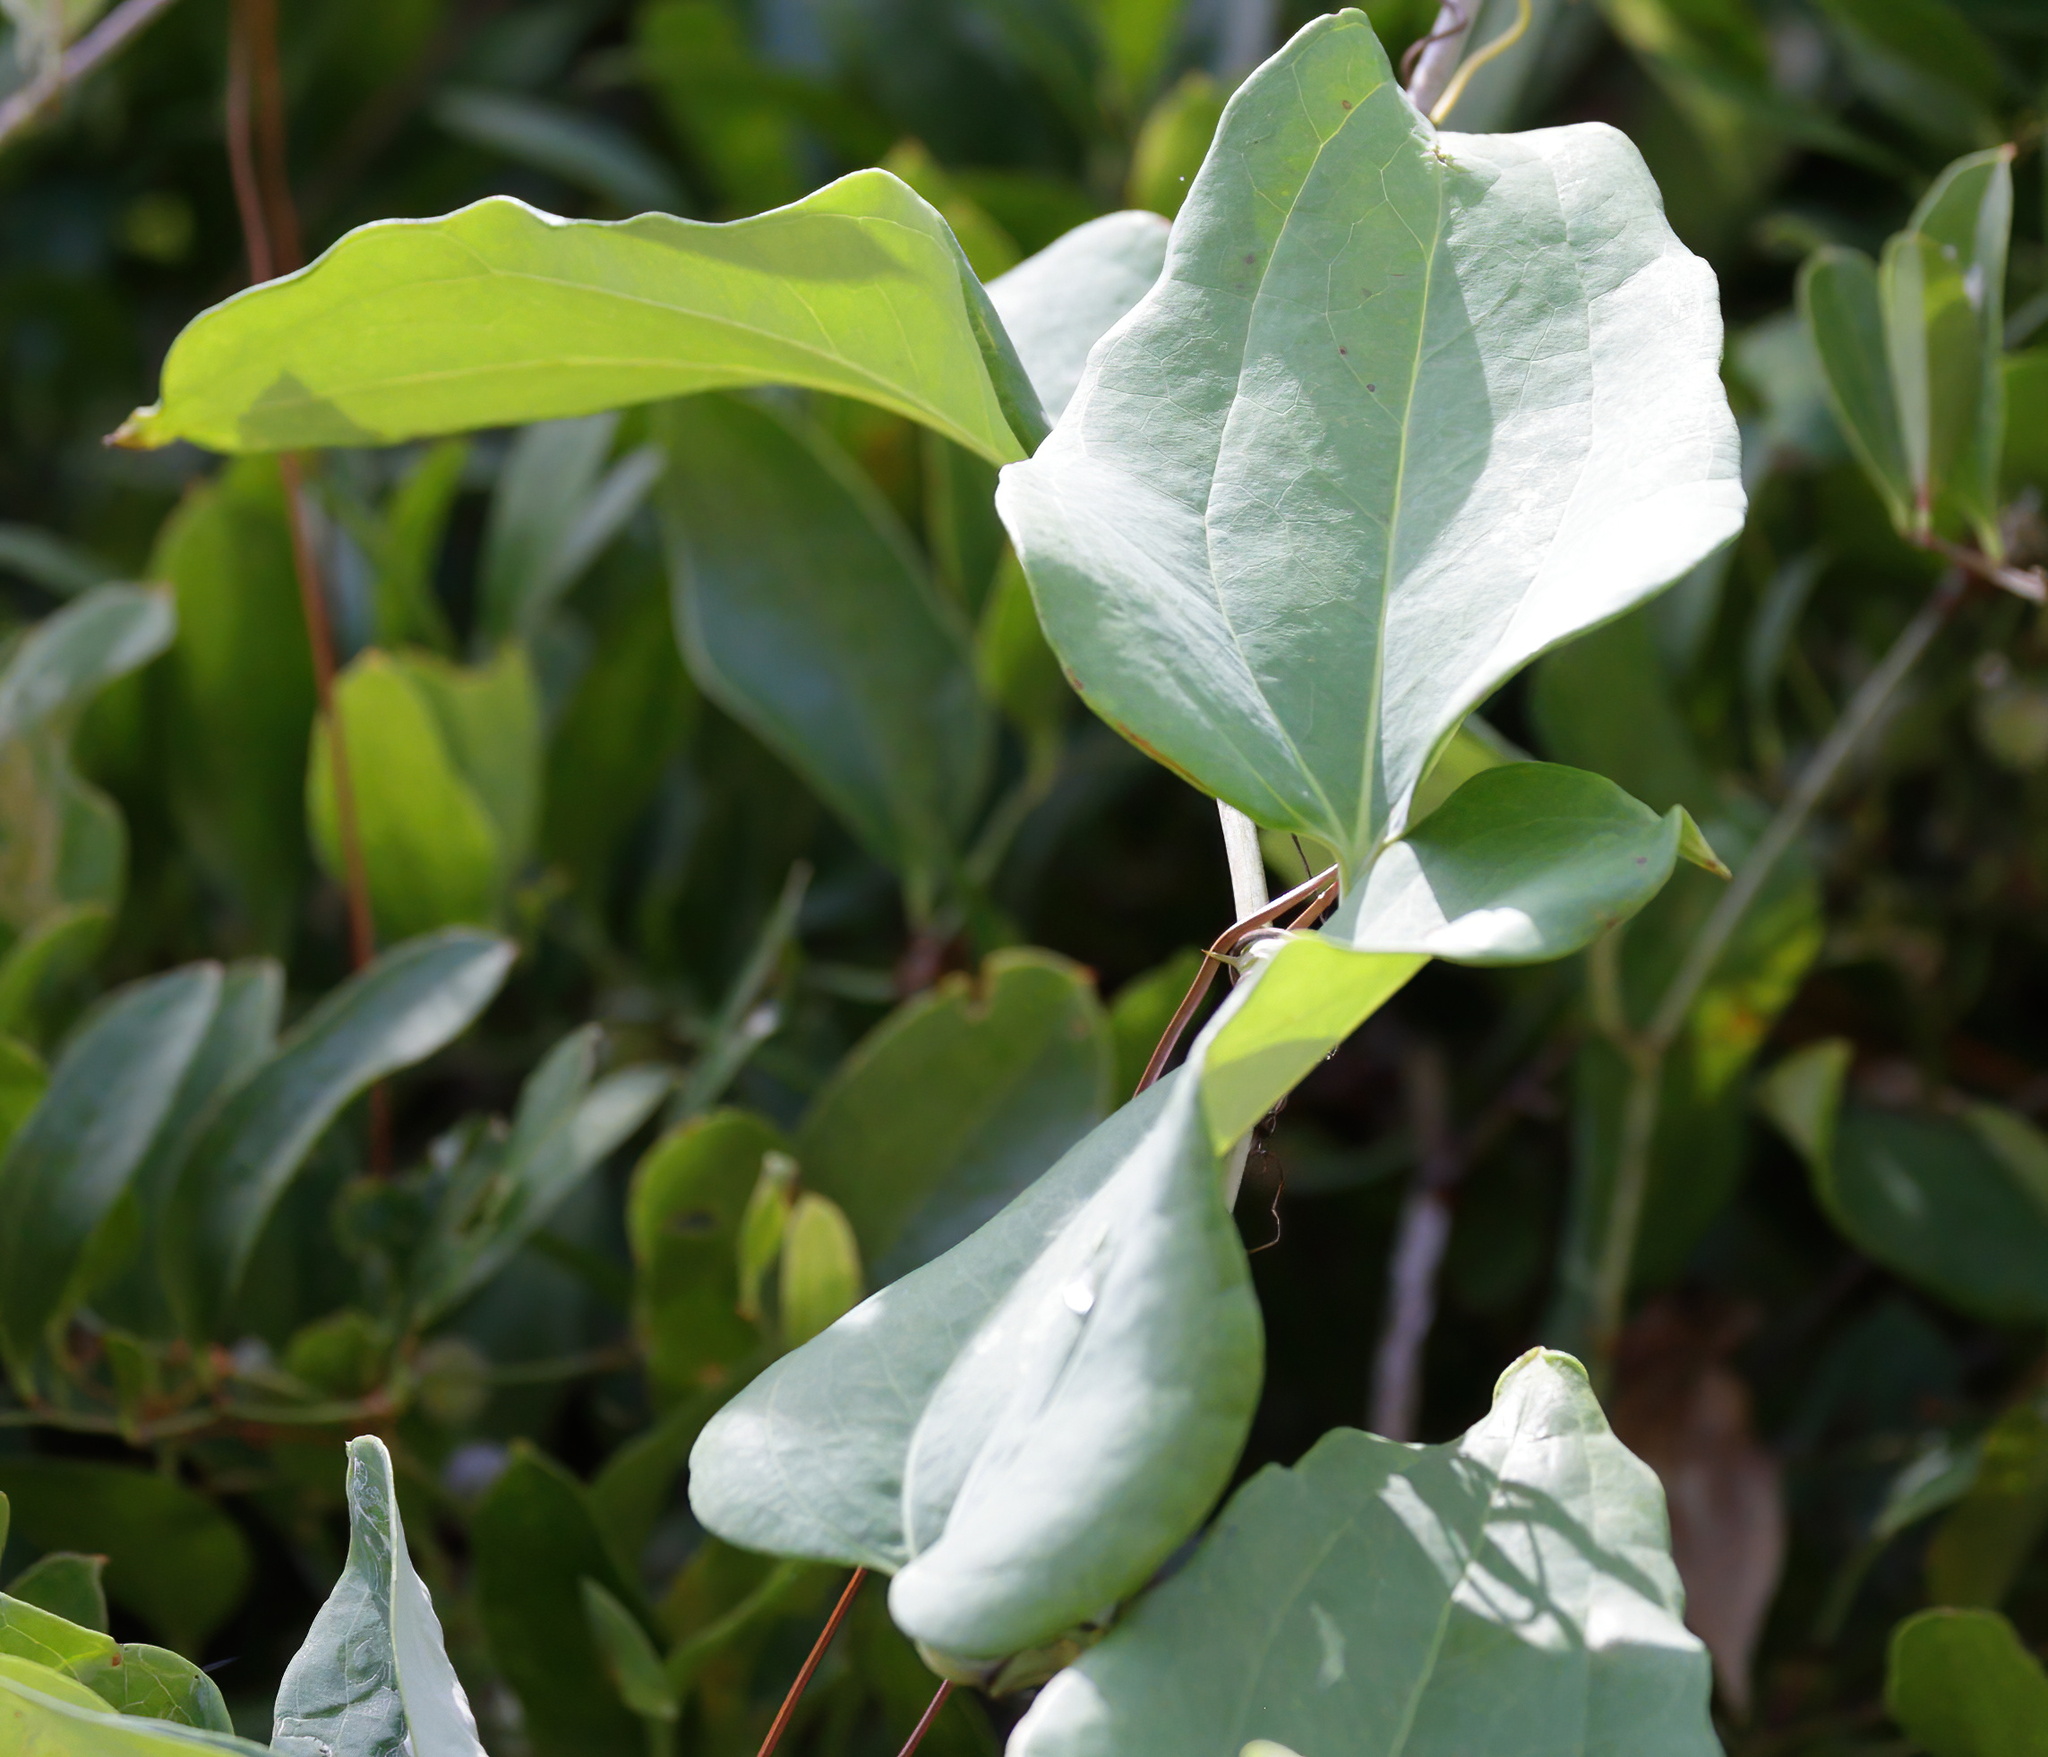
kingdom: Plantae
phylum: Tracheophyta
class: Liliopsida
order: Liliales
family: Smilacaceae
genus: Smilax
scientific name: Smilax glauca
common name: Cat greenbrier
